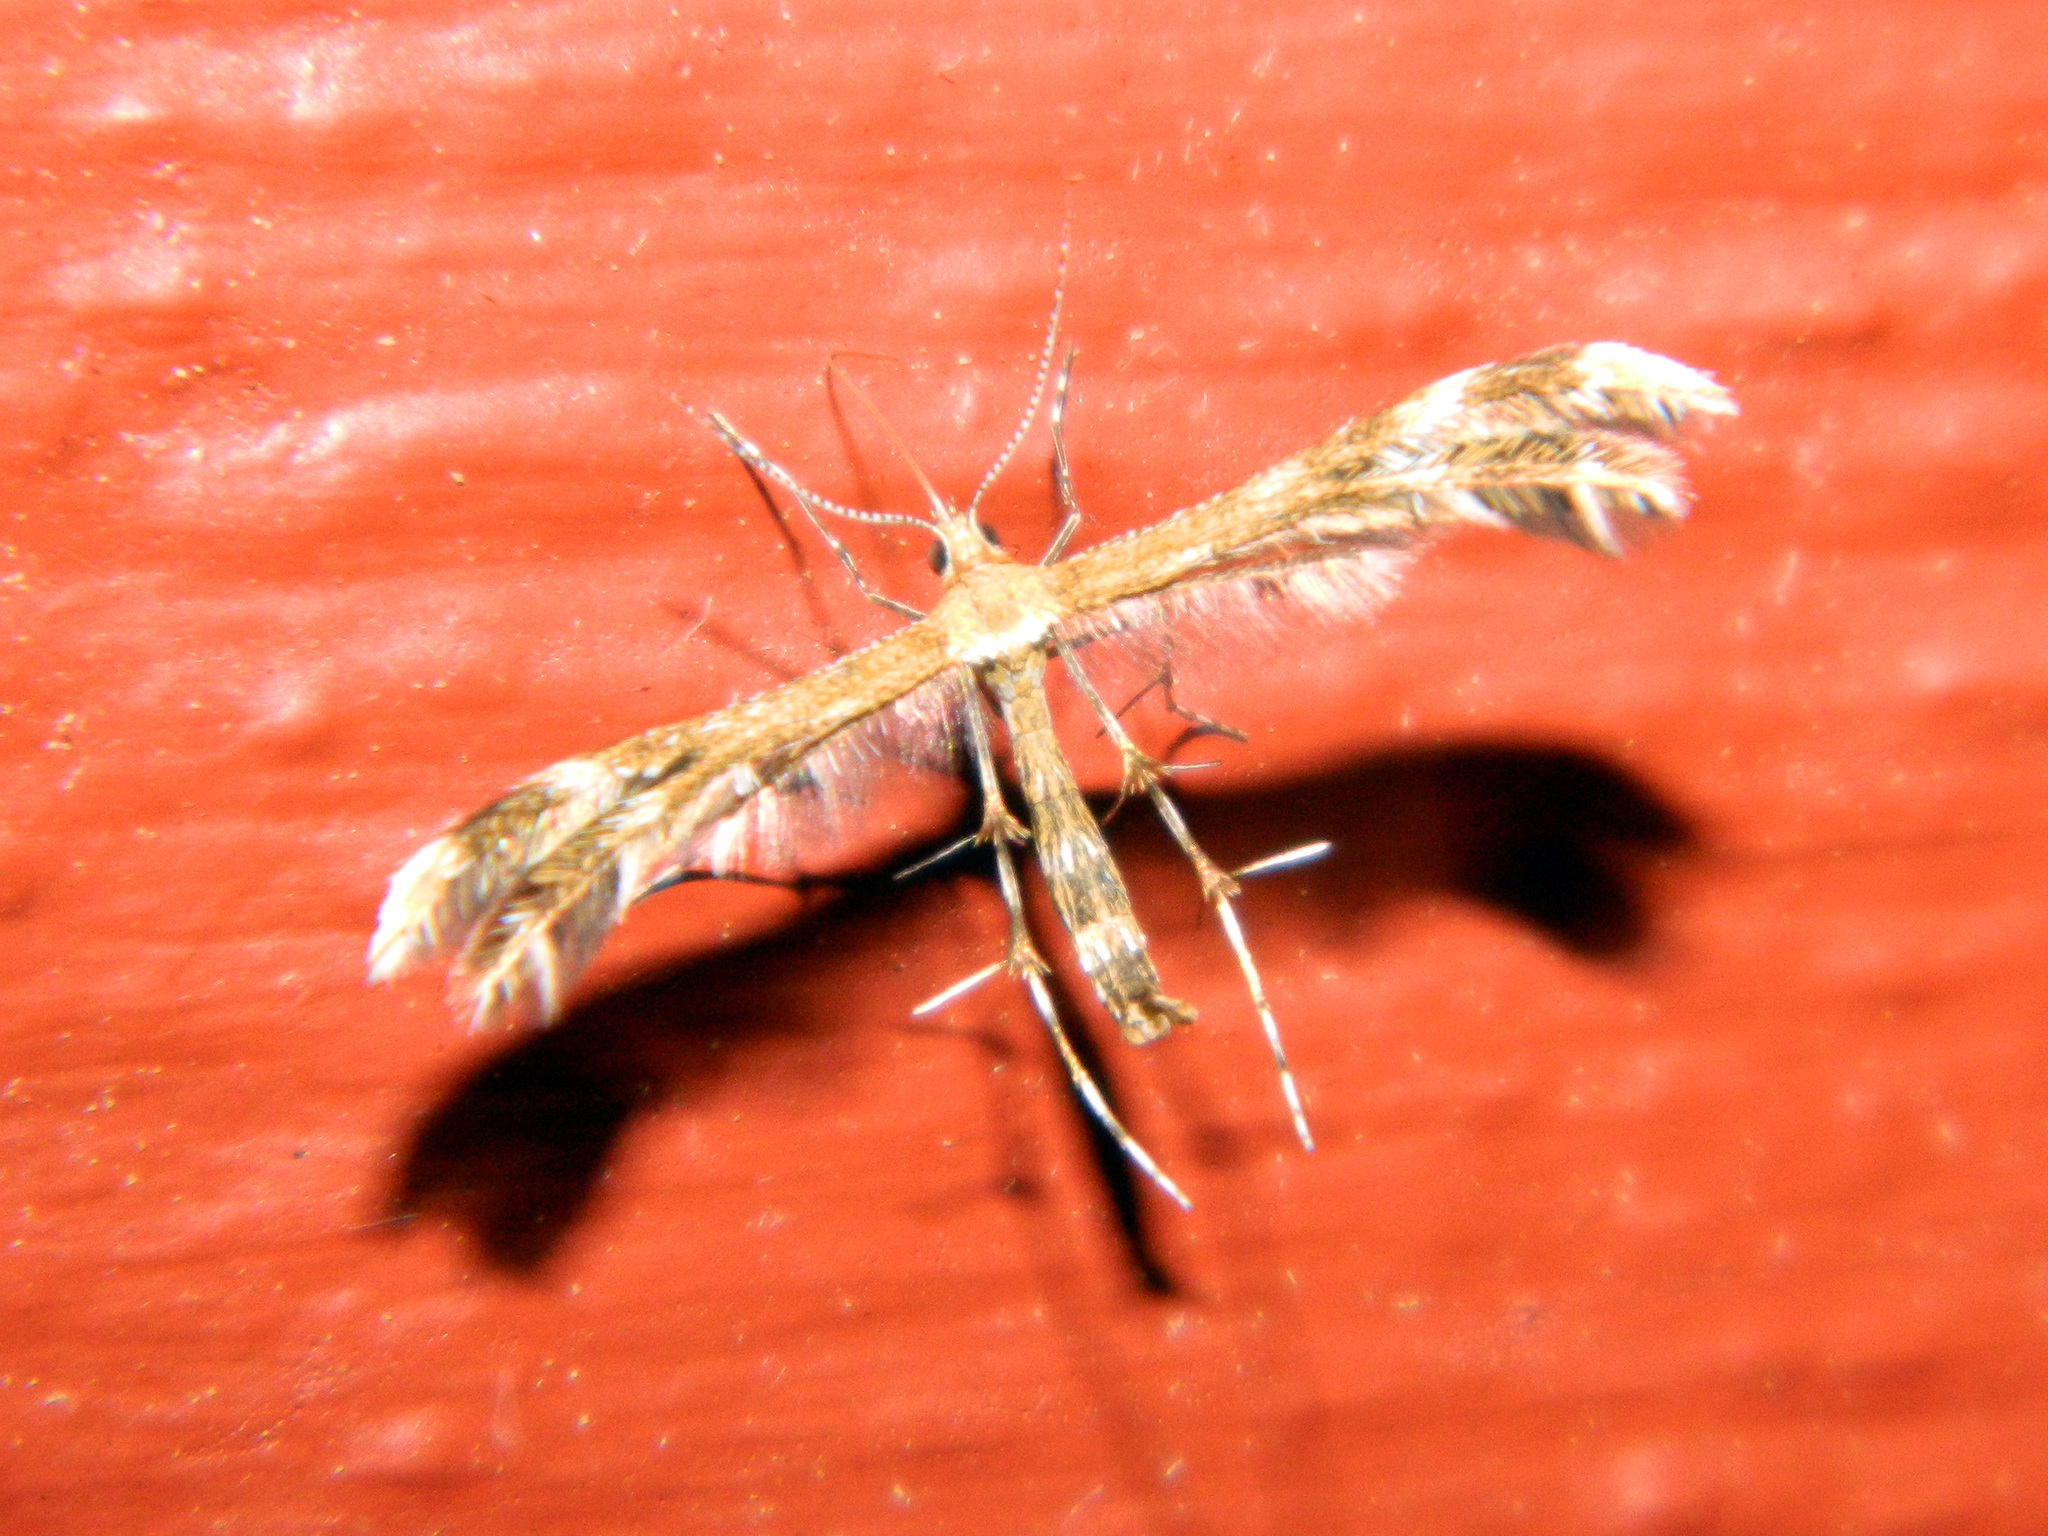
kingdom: Animalia
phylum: Arthropoda
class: Insecta
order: Lepidoptera
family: Pterophoridae
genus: Dejongia
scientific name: Dejongia lobidactylus
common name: Lobed plume moth
